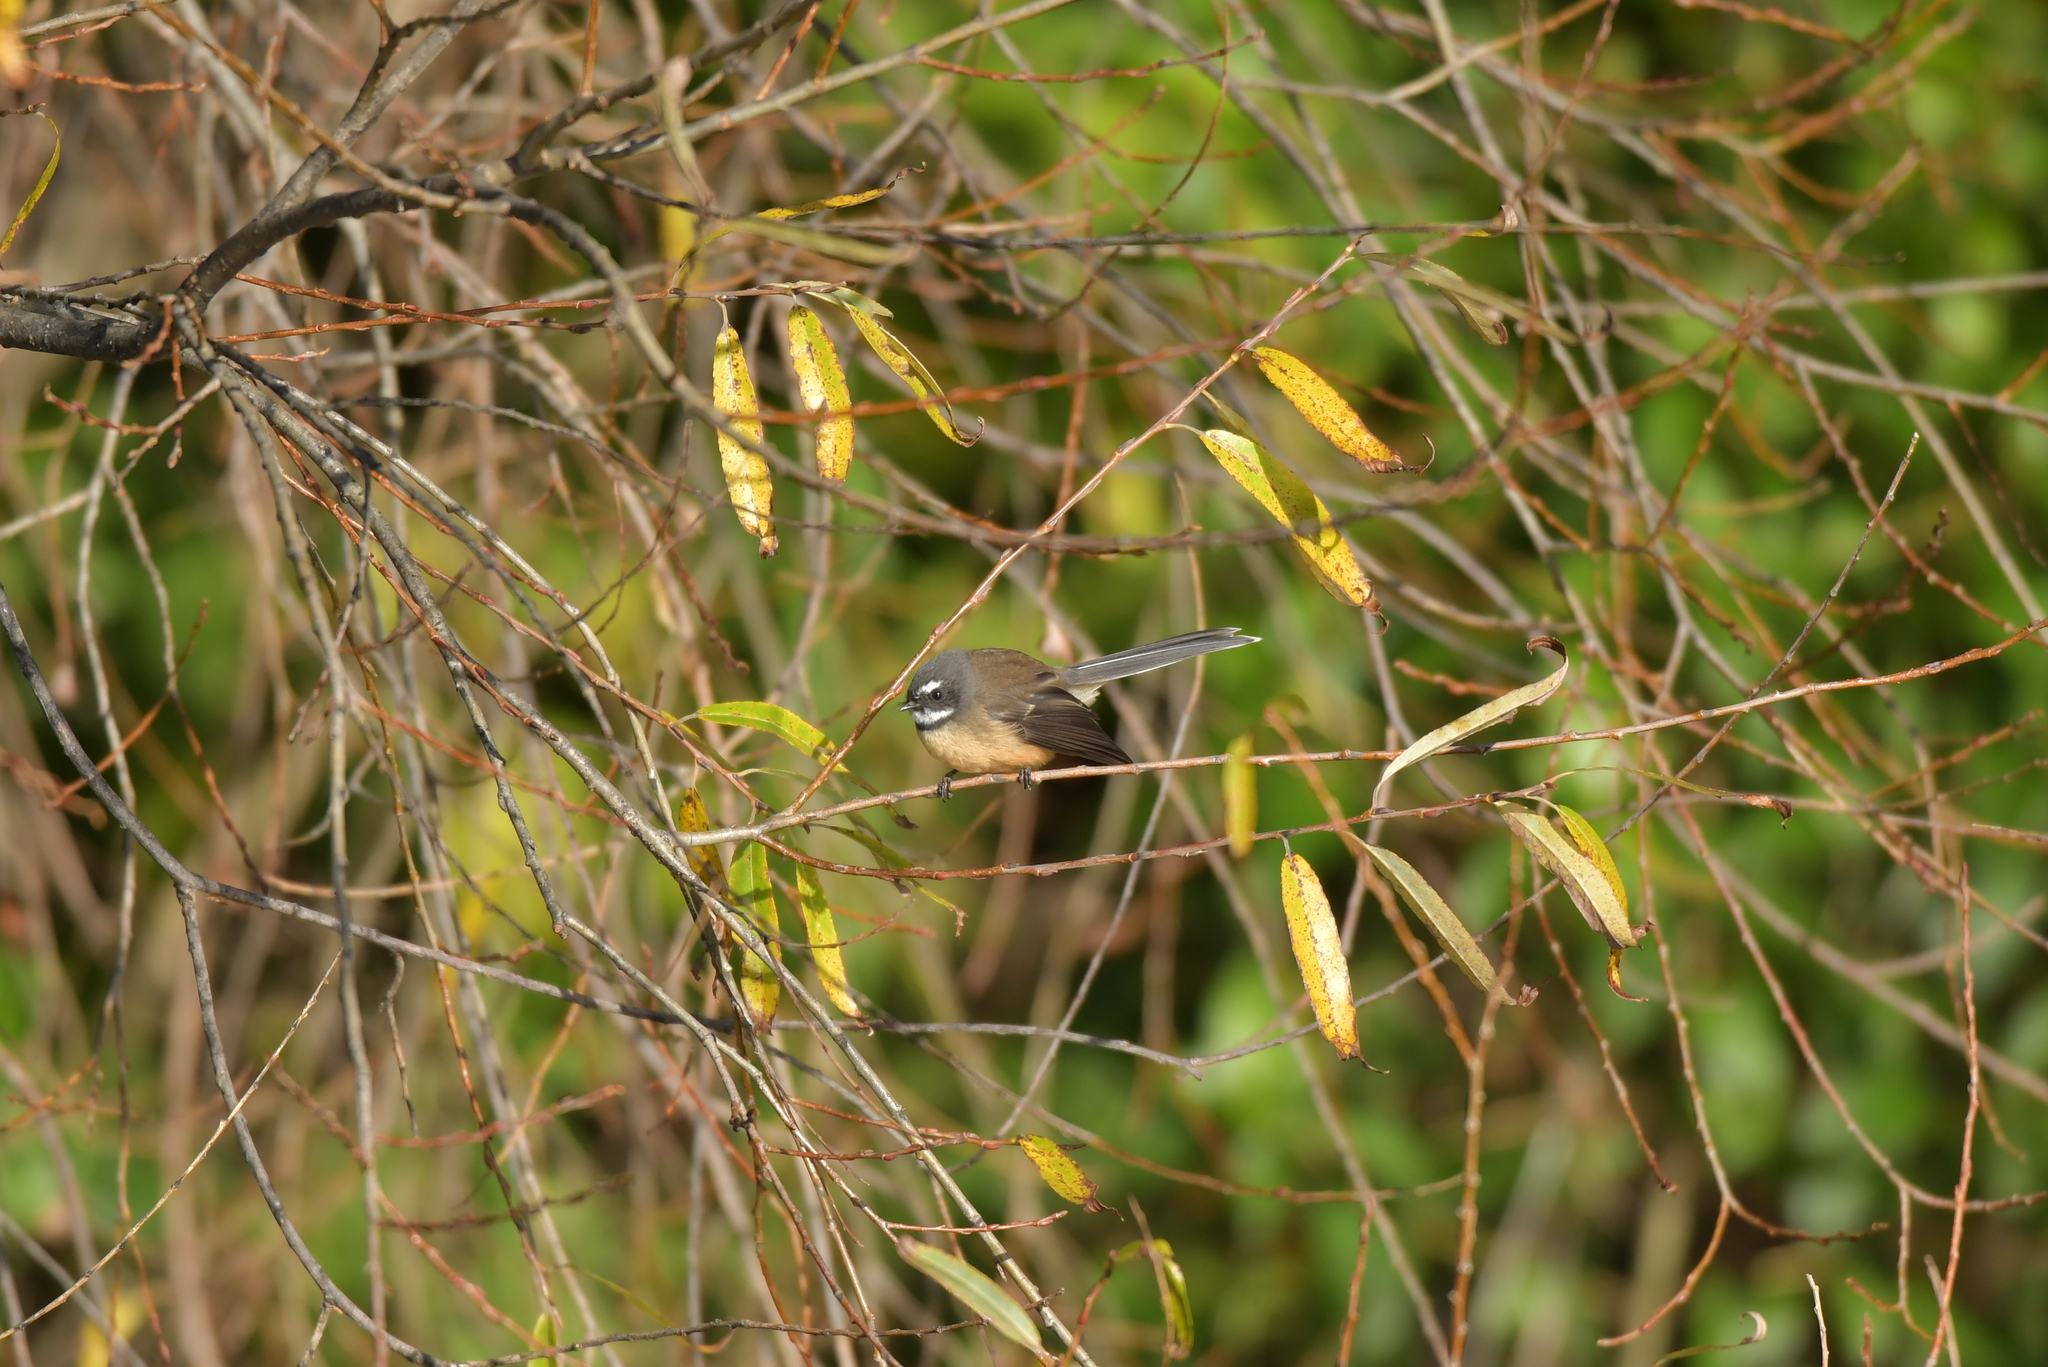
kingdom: Animalia
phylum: Chordata
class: Aves
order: Passeriformes
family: Rhipiduridae
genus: Rhipidura
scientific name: Rhipidura fuliginosa
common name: New zealand fantail
